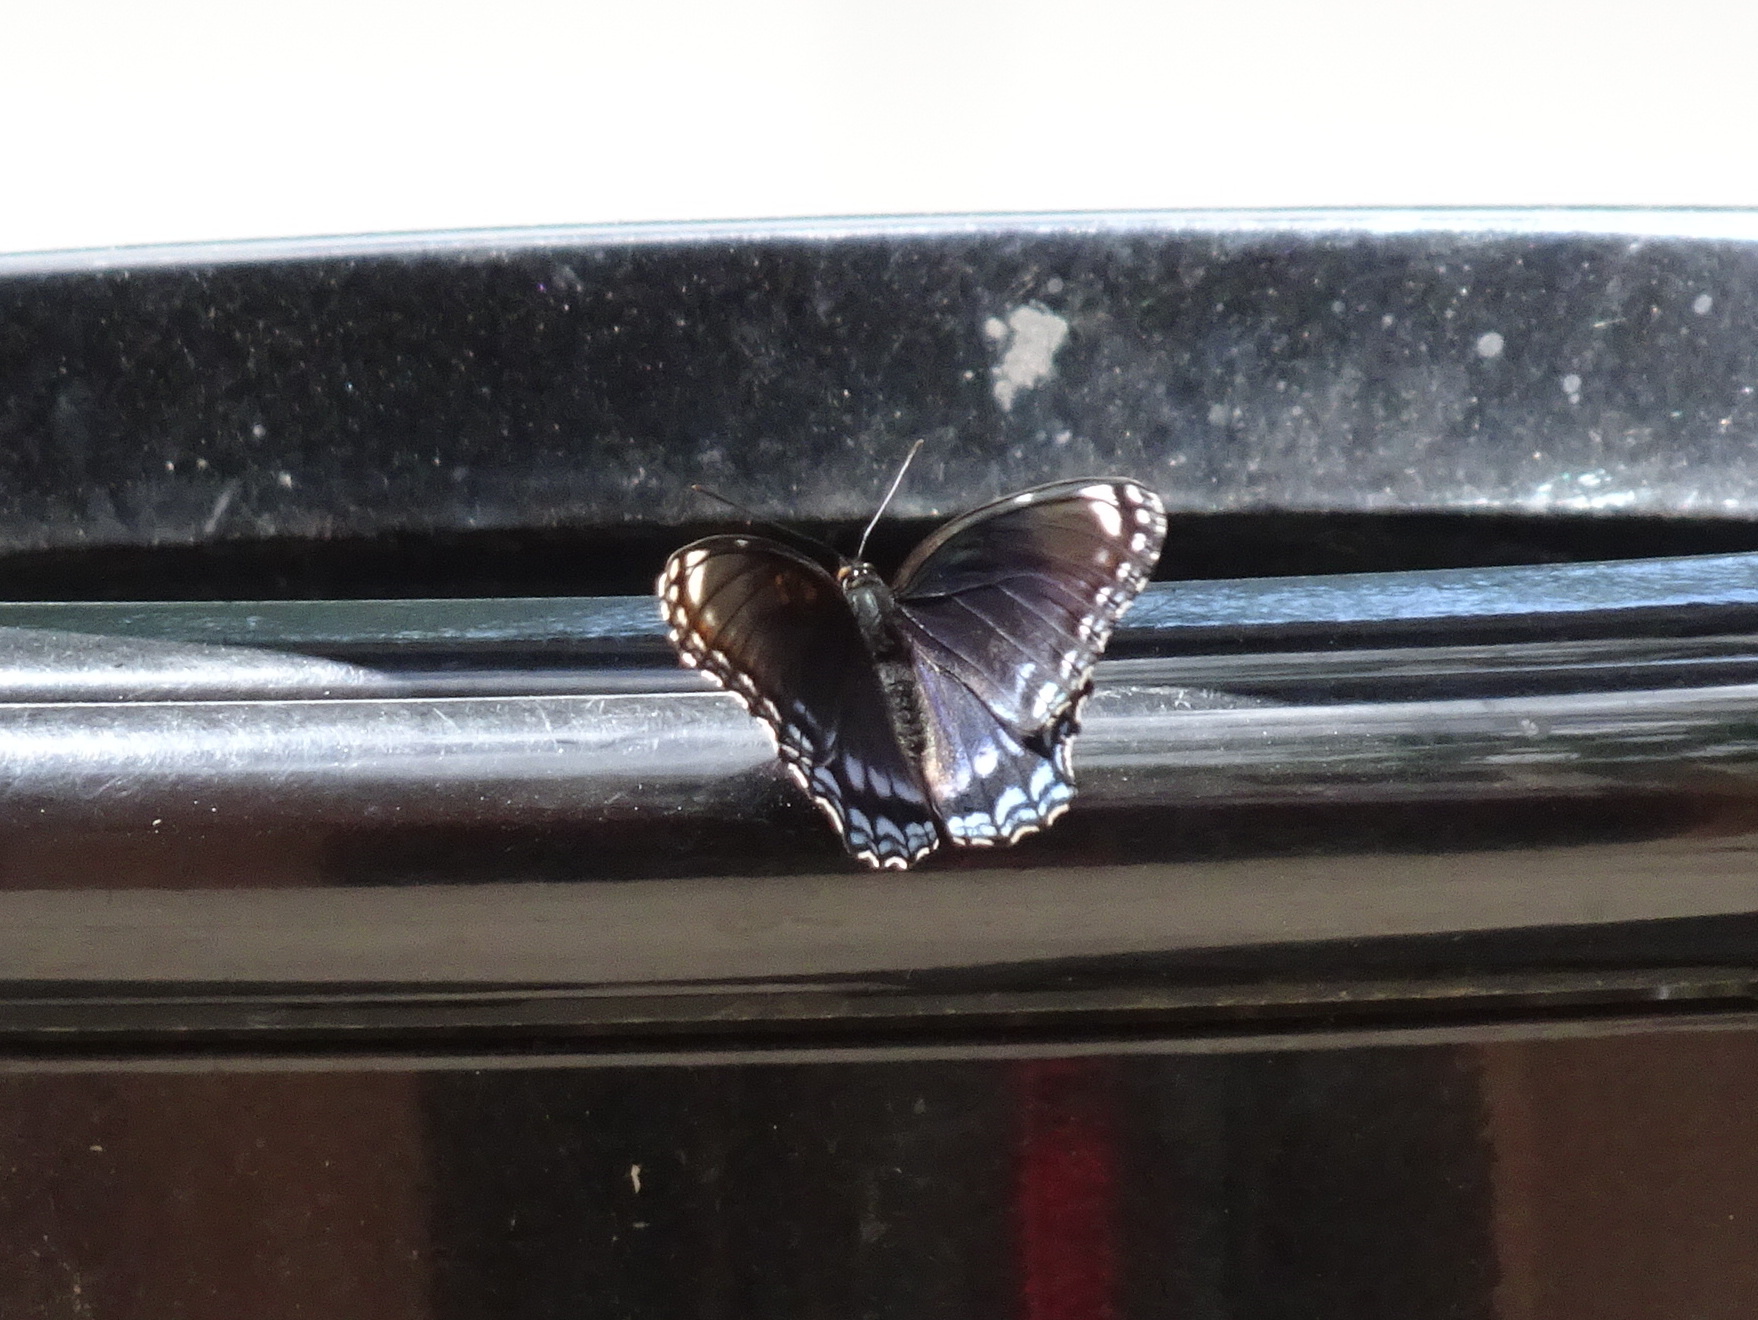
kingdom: Animalia
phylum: Arthropoda
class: Insecta
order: Lepidoptera
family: Nymphalidae
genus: Limenitis
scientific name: Limenitis arthemis
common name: Red-spotted admiral
